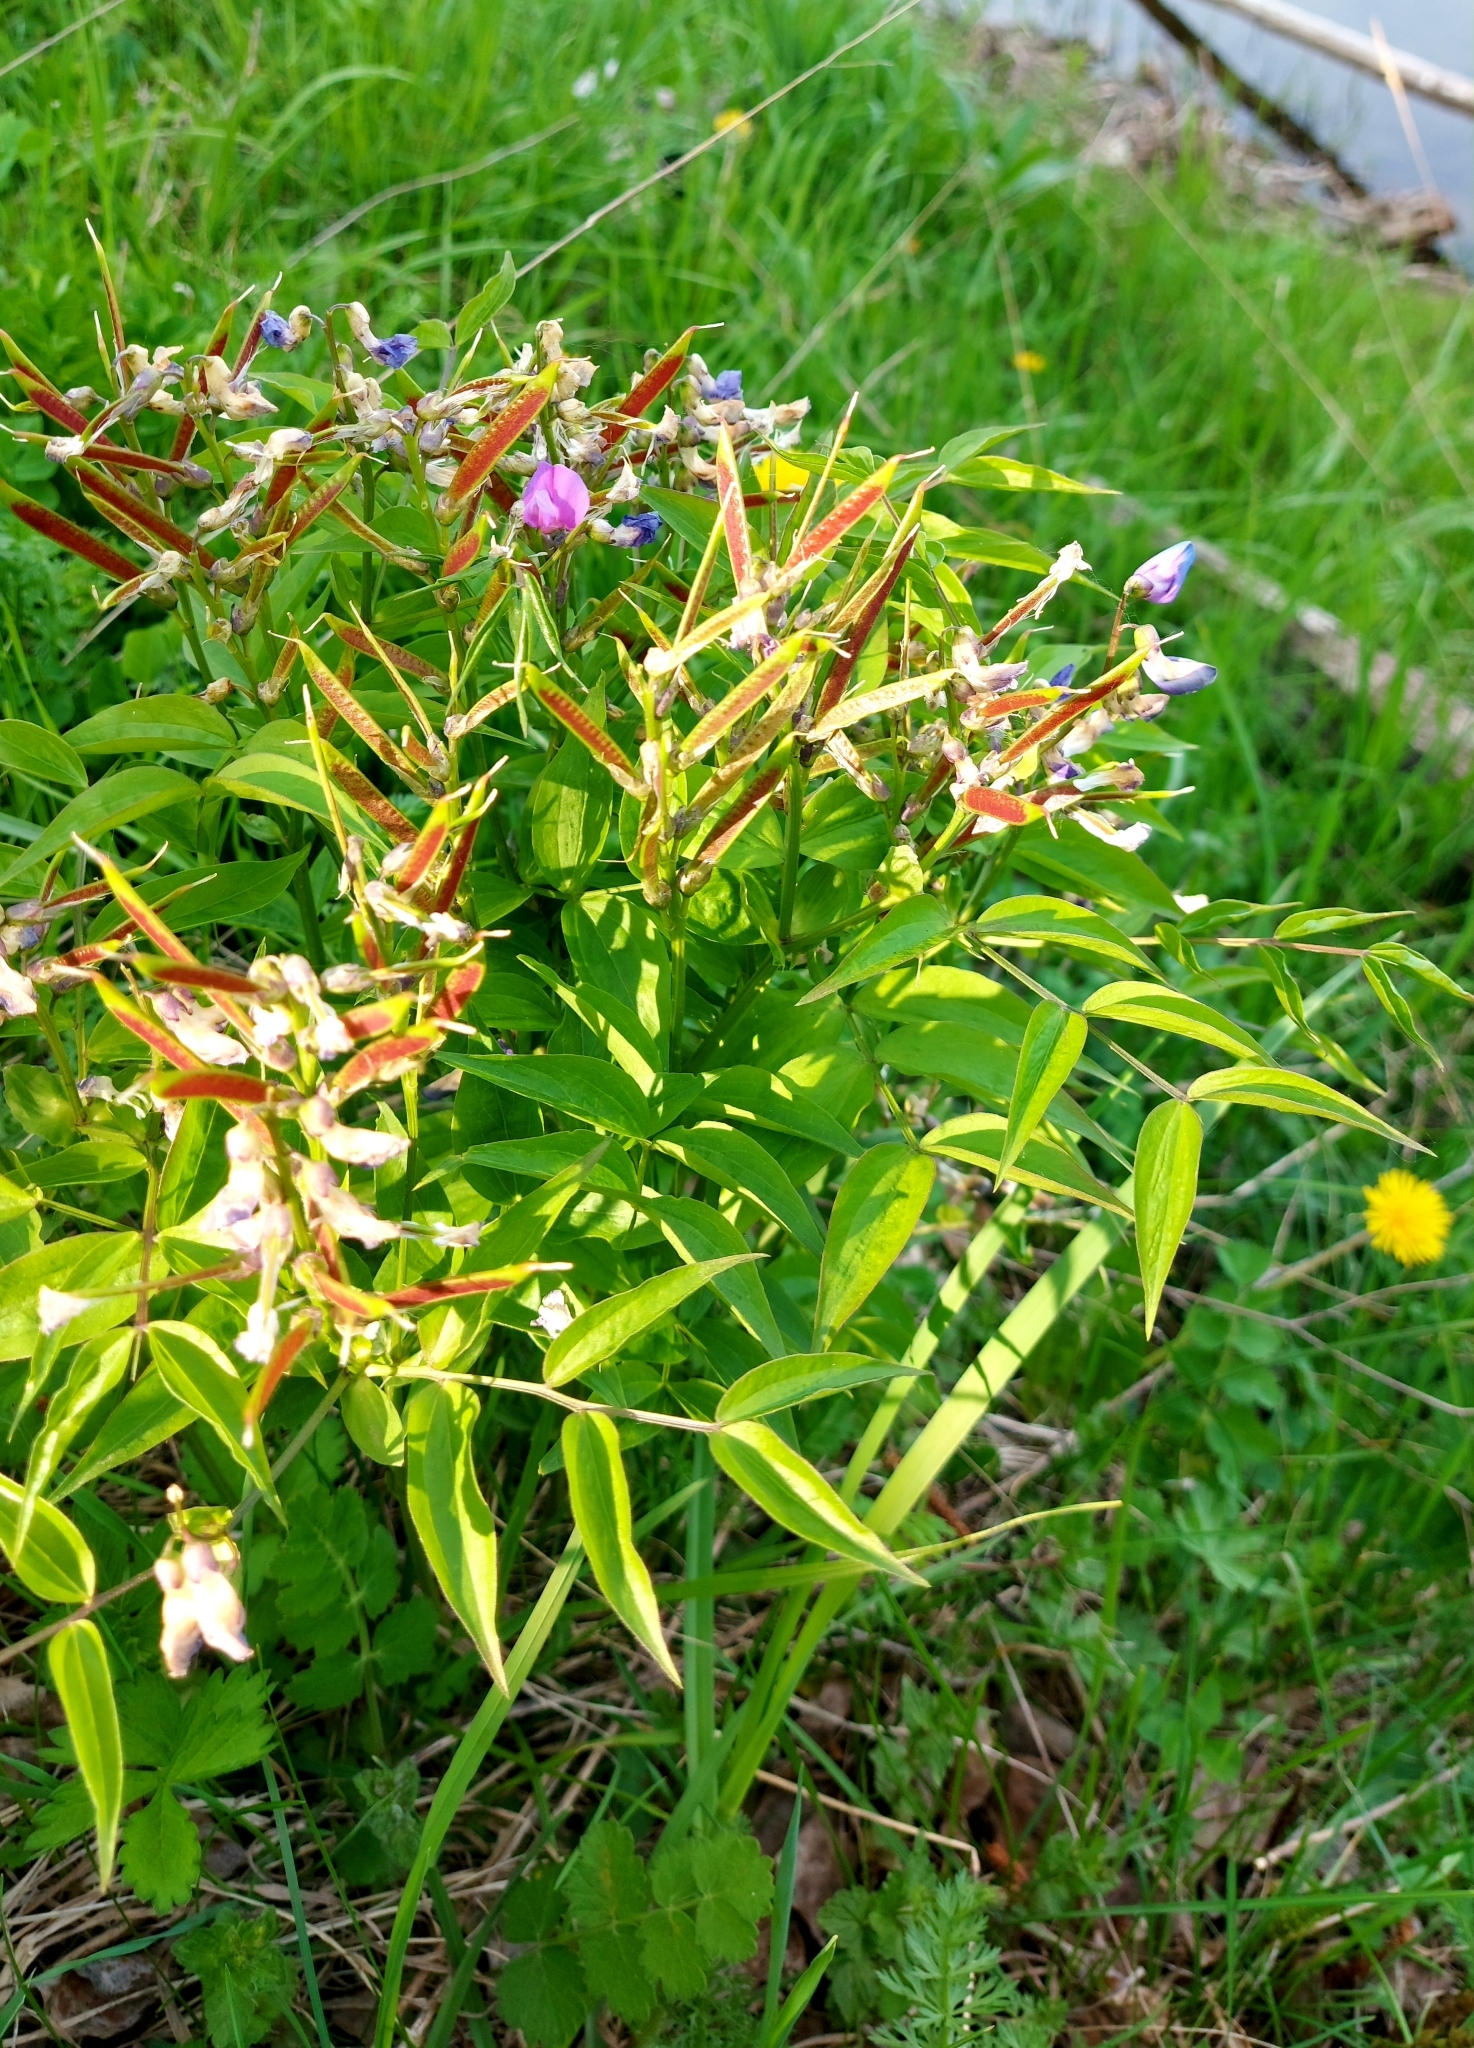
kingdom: Plantae
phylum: Tracheophyta
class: Magnoliopsida
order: Fabales
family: Fabaceae
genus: Lathyrus
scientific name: Lathyrus vernus
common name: Spring pea
